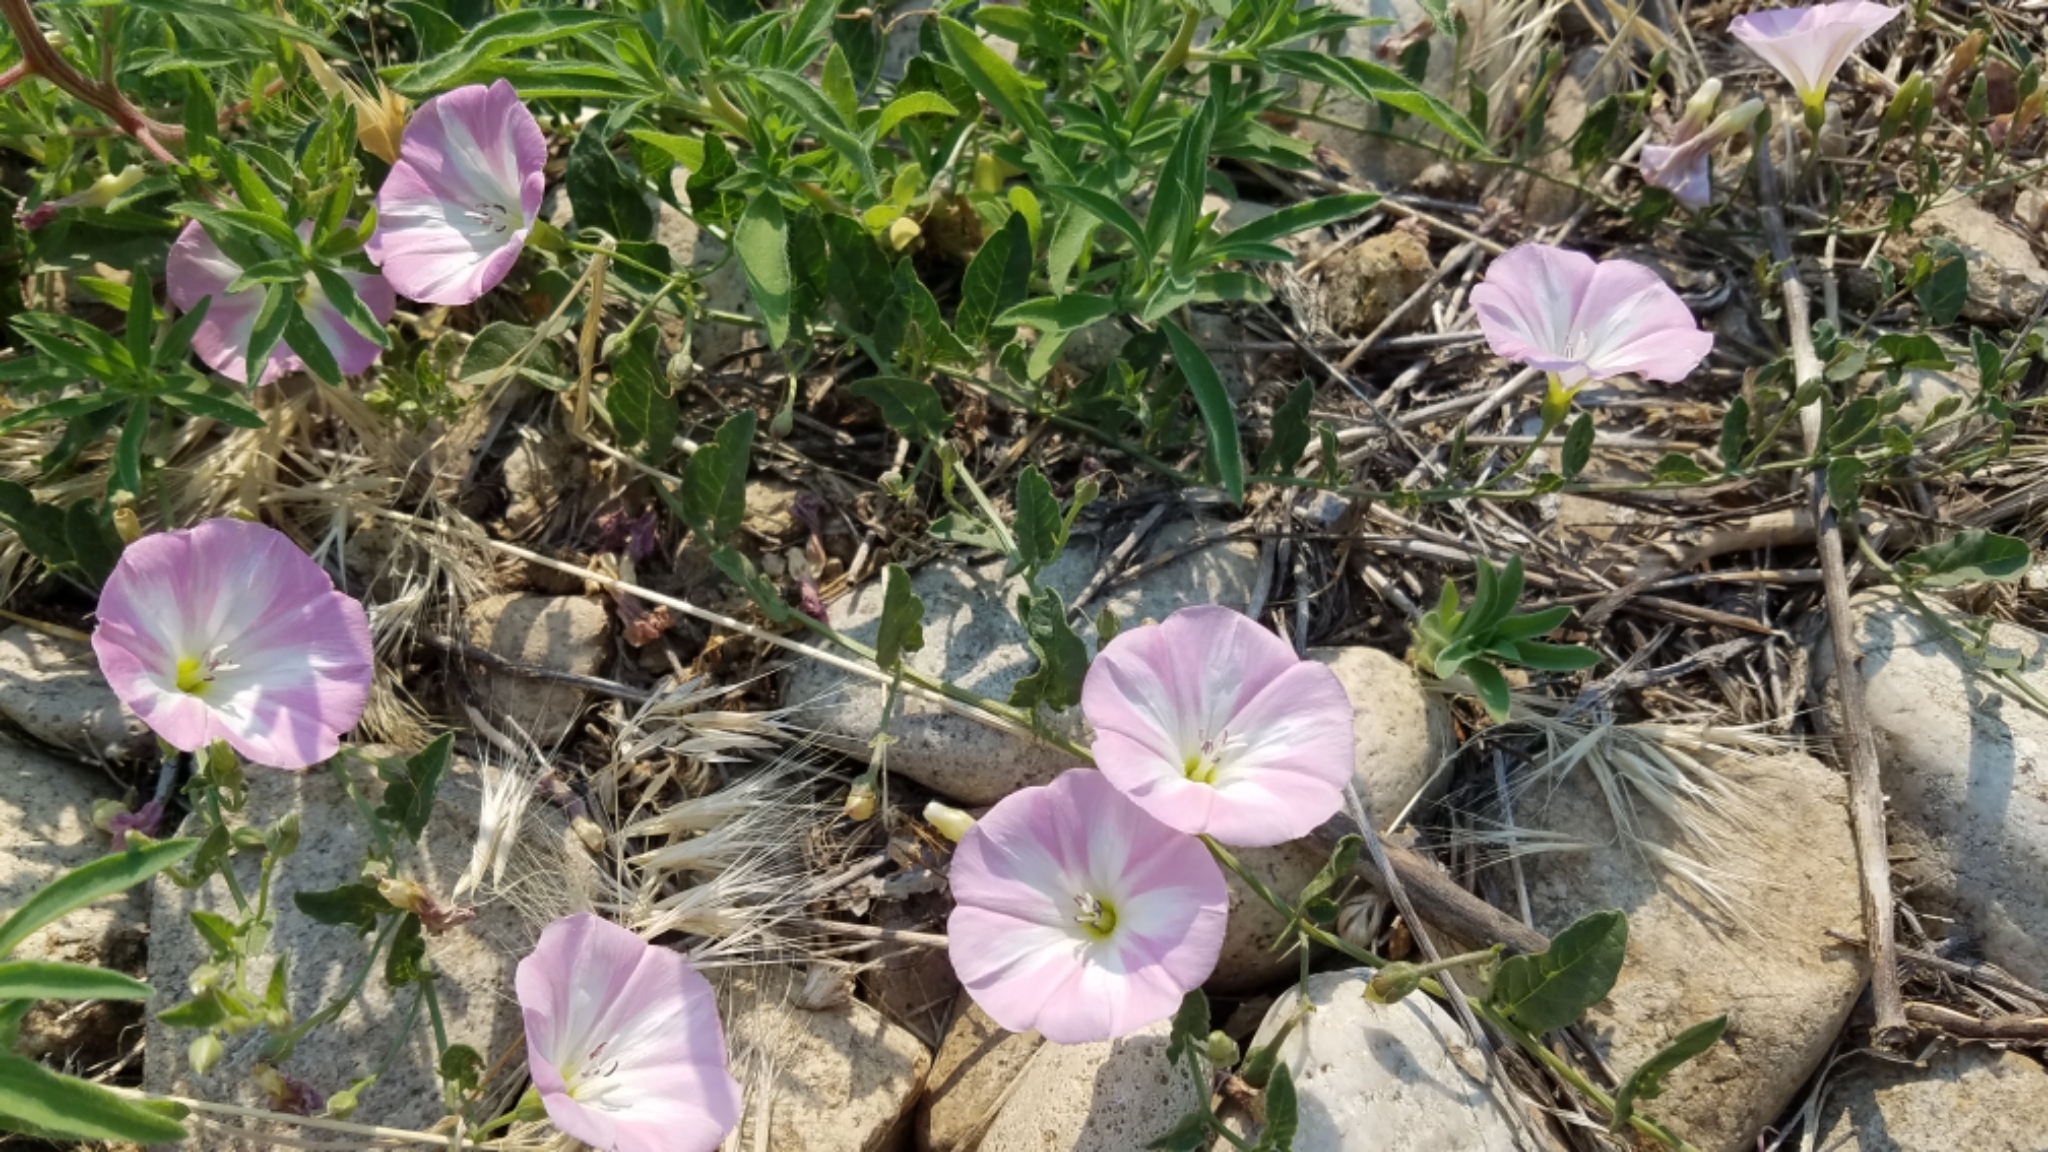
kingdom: Plantae
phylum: Tracheophyta
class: Magnoliopsida
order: Solanales
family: Convolvulaceae
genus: Convolvulus
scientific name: Convolvulus arvensis
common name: Field bindweed
